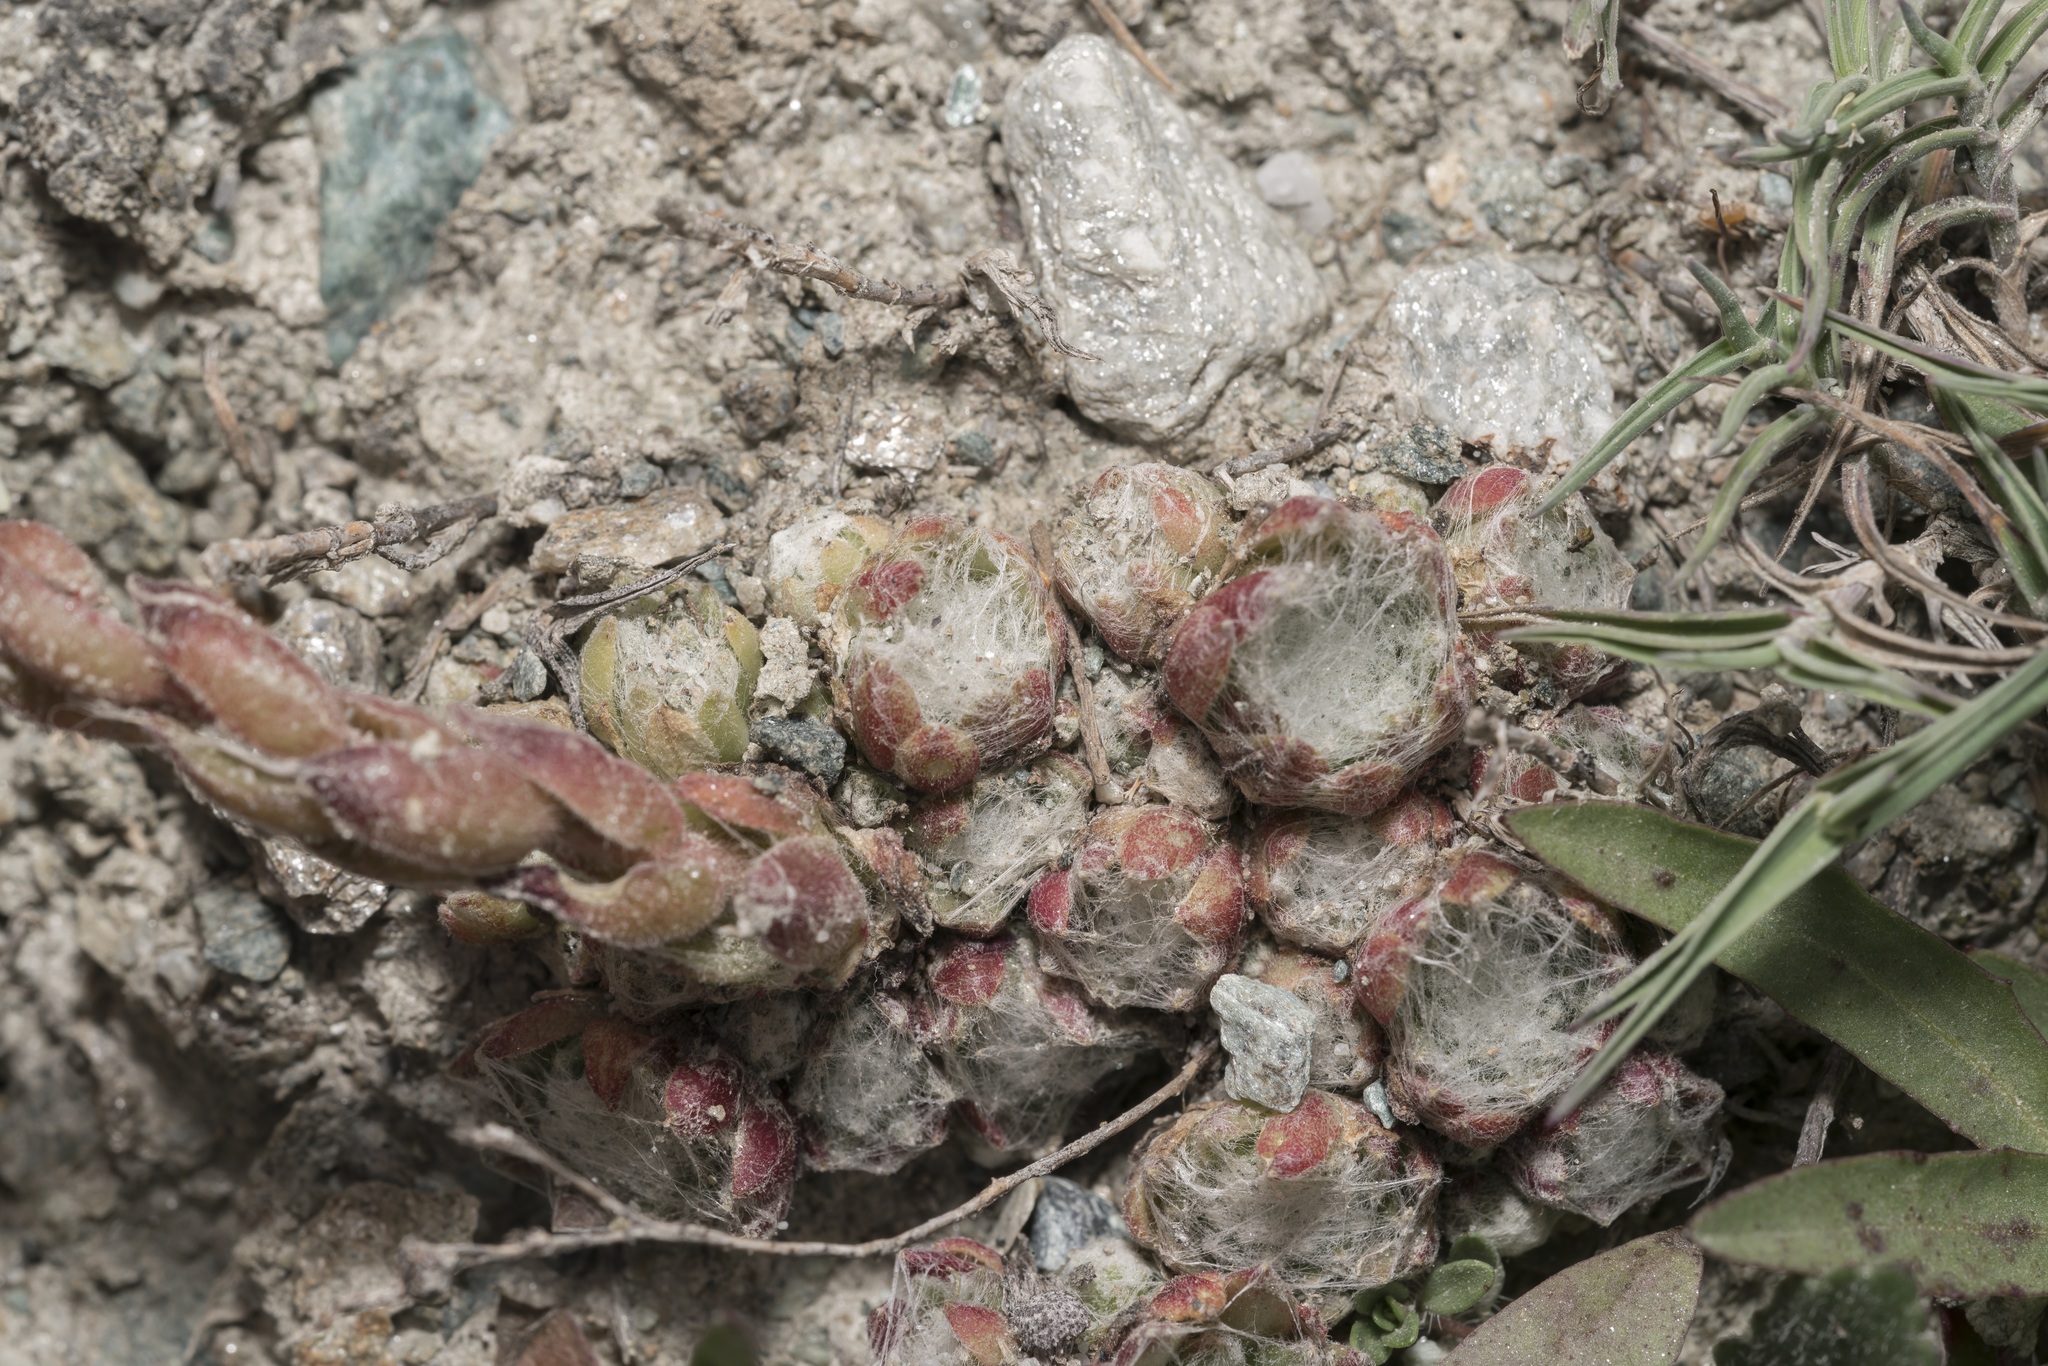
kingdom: Plantae
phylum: Tracheophyta
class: Magnoliopsida
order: Saxifragales
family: Crassulaceae
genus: Sempervivum
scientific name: Sempervivum arachnoideum
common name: Cobweb house-leek
